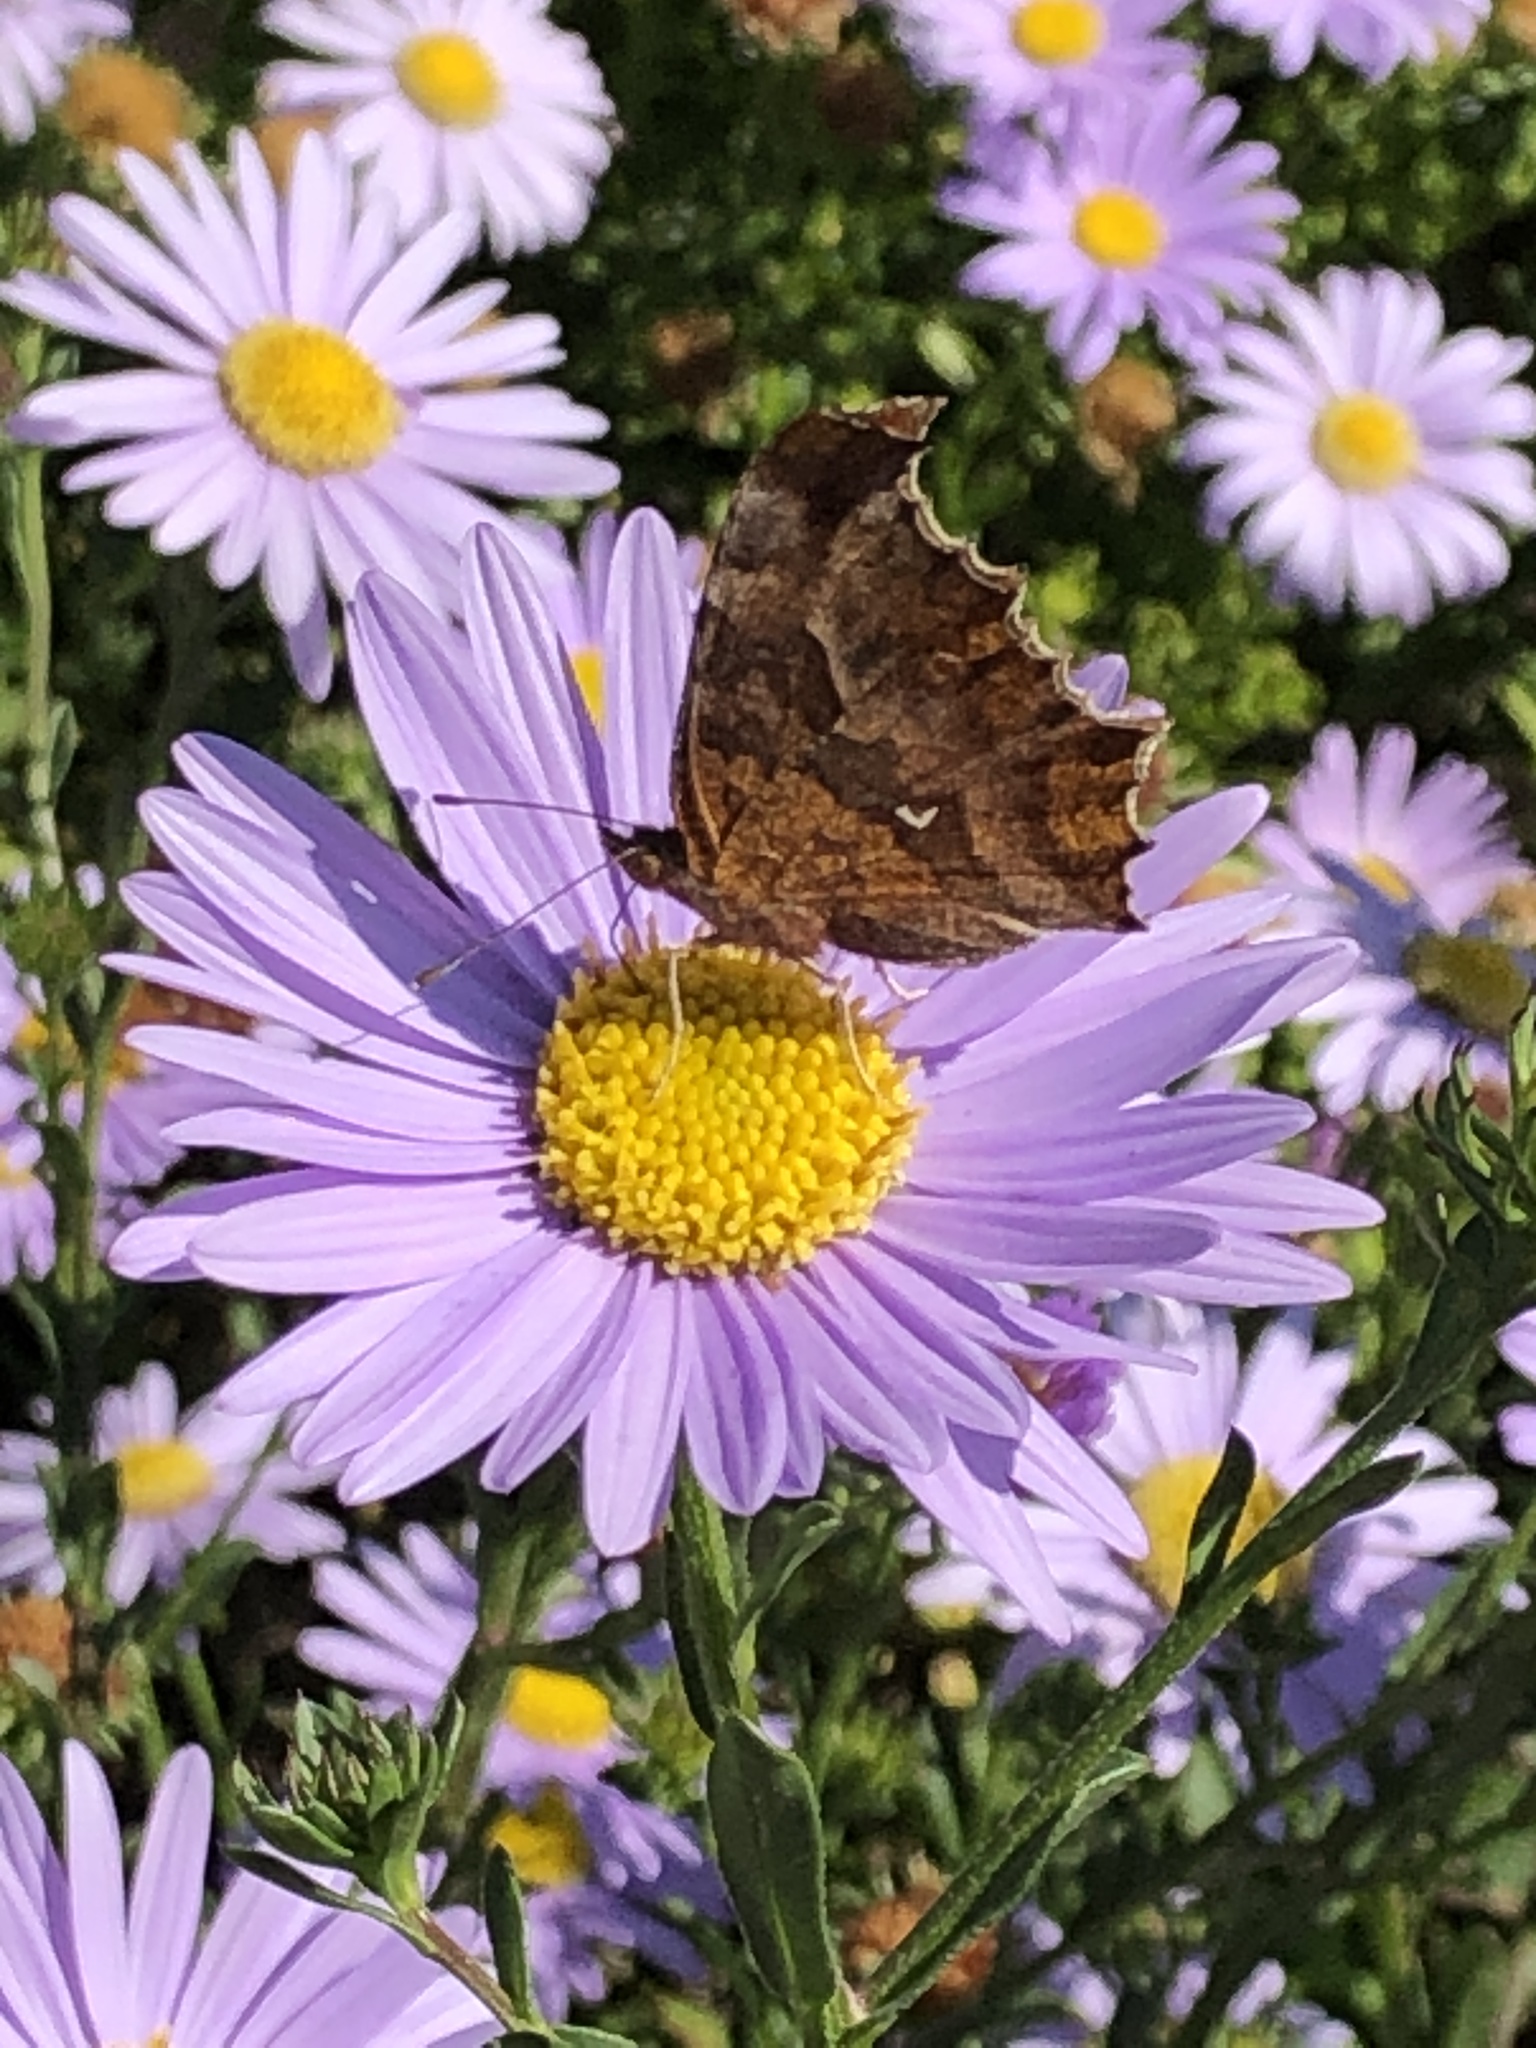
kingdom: Animalia
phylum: Arthropoda
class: Insecta
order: Lepidoptera
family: Nymphalidae
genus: Polygonia
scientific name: Polygonia c-aureum
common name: Asian comma
